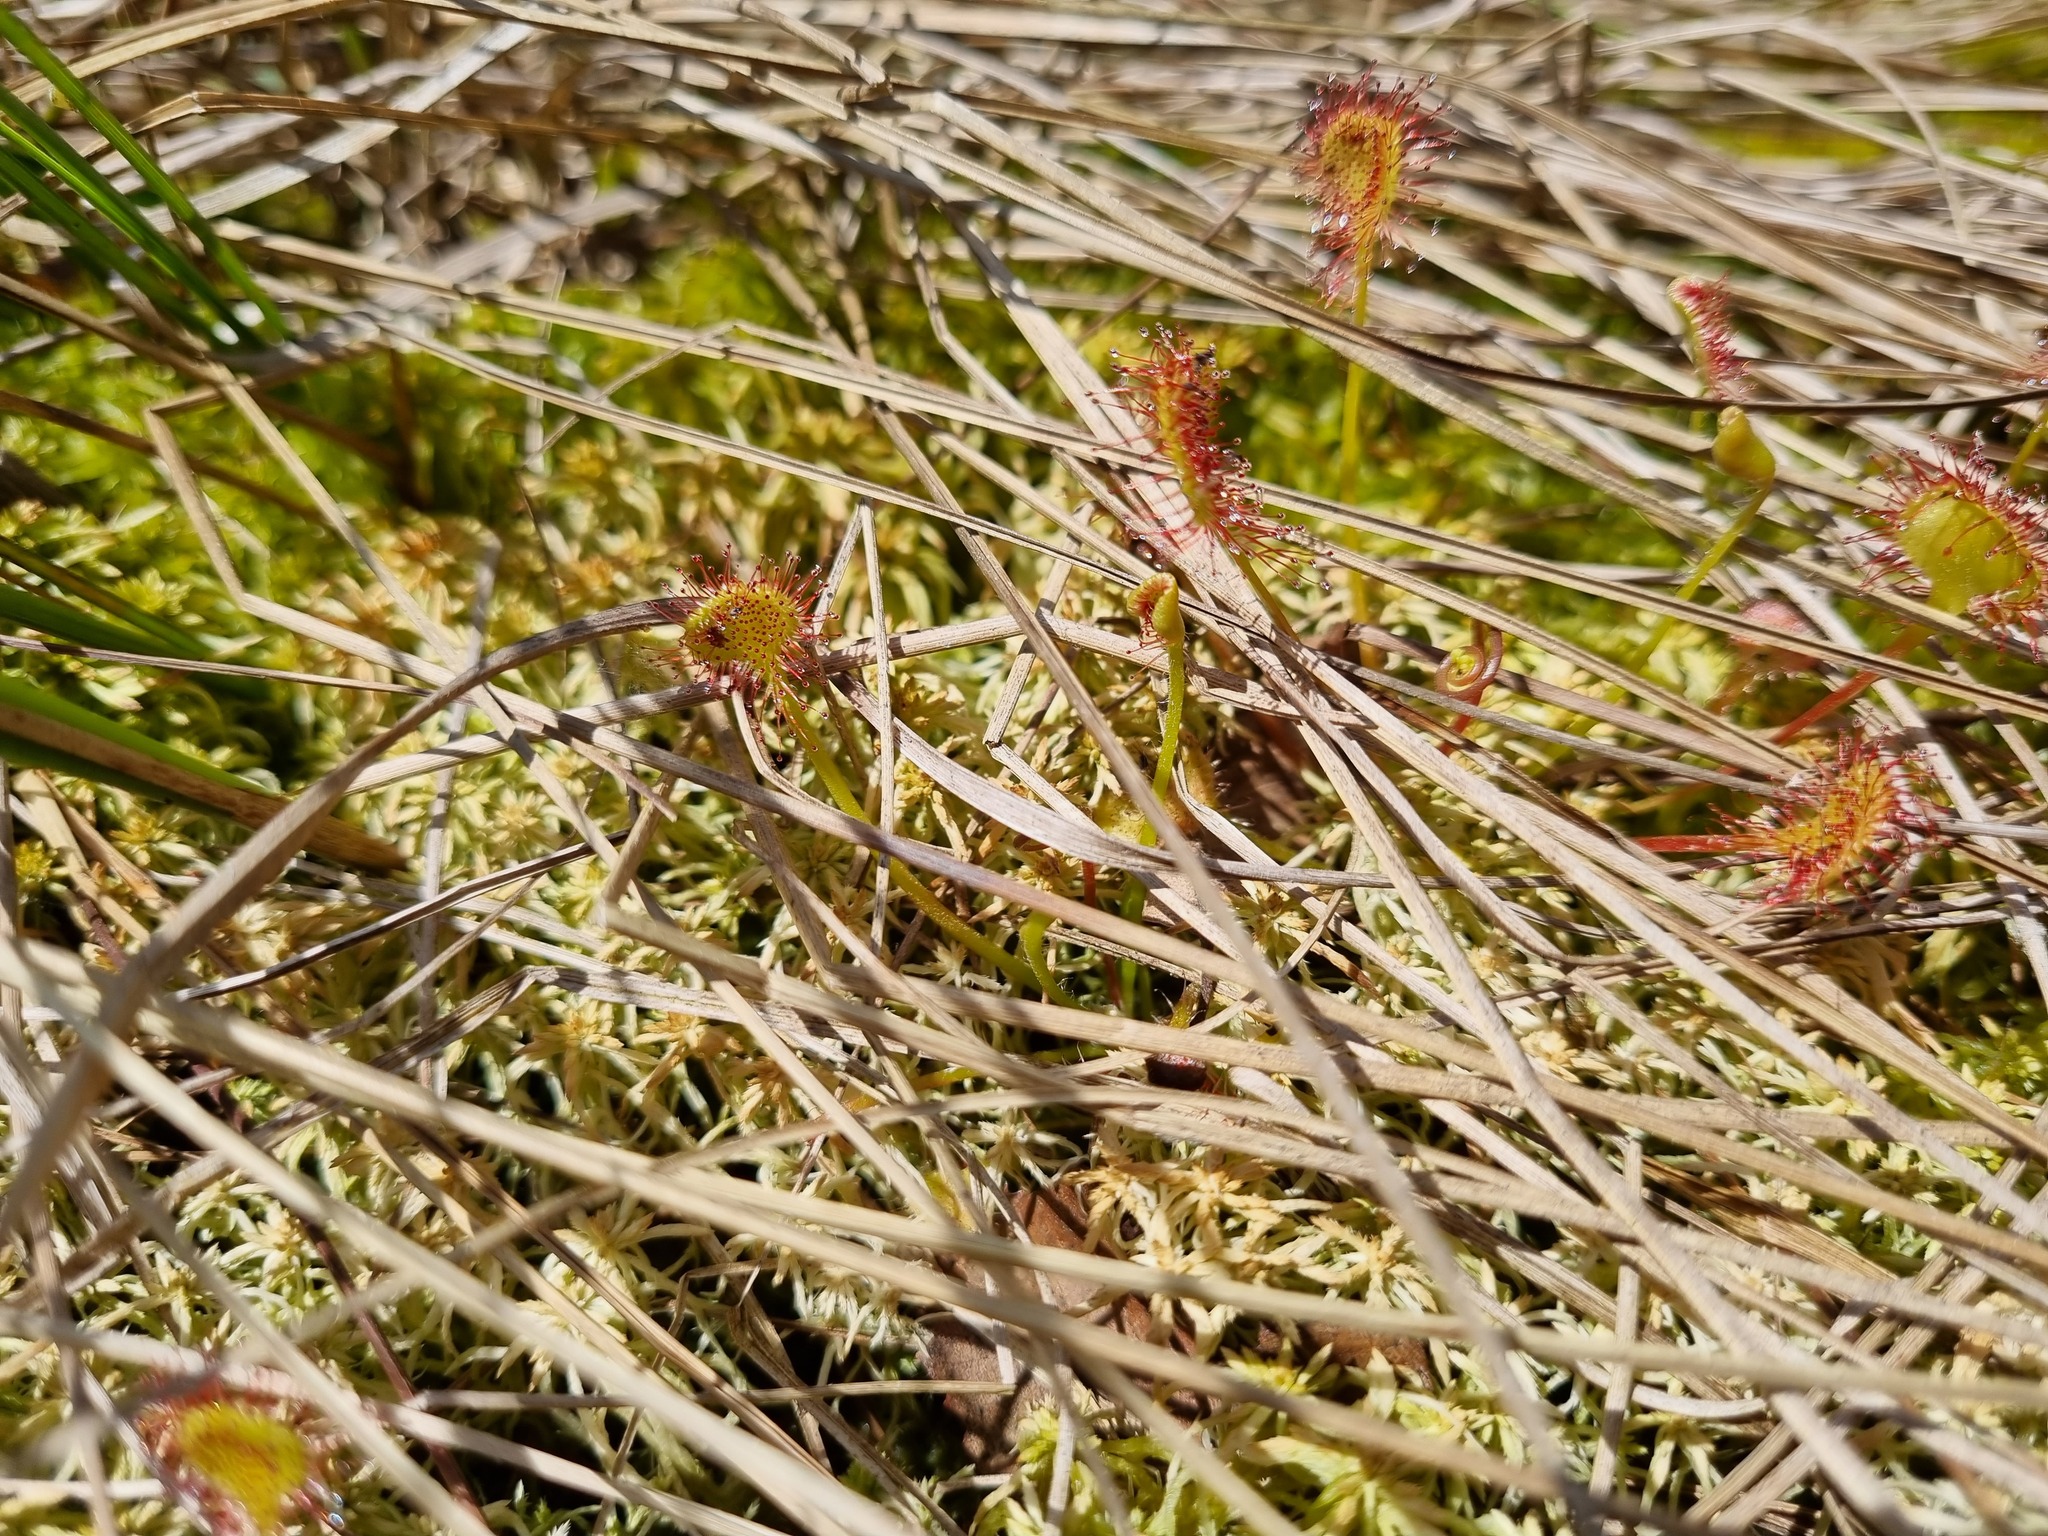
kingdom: Plantae
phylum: Tracheophyta
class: Magnoliopsida
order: Caryophyllales
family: Droseraceae
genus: Drosera
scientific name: Drosera rotundifolia
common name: Round-leaved sundew
